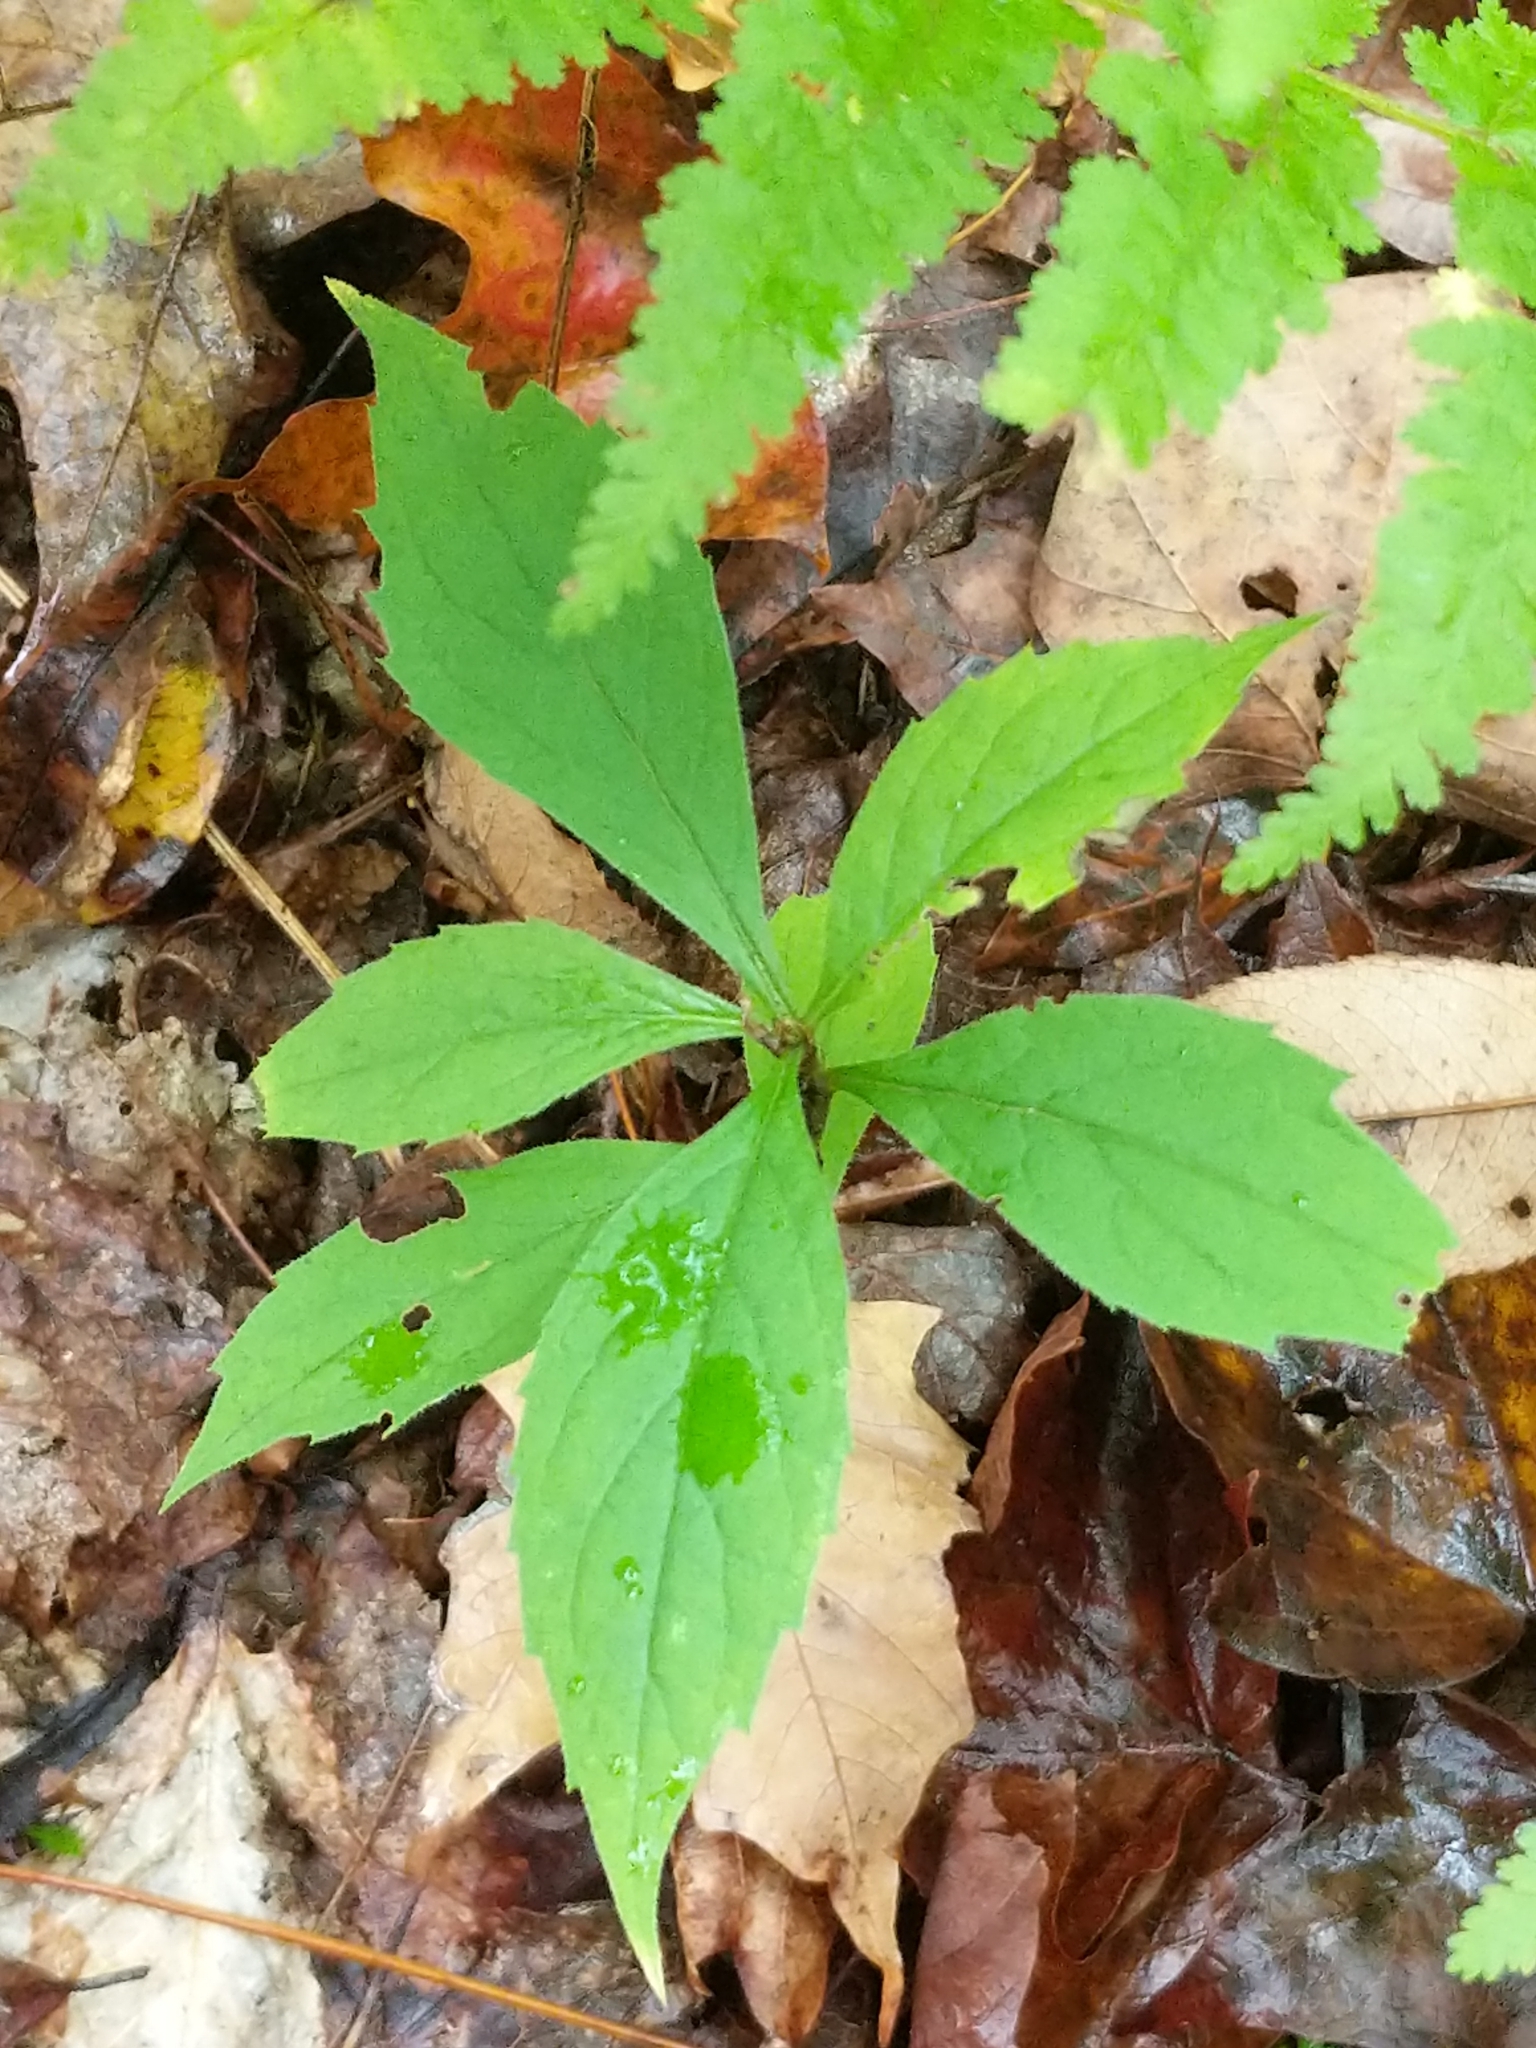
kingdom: Plantae
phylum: Tracheophyta
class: Magnoliopsida
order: Asterales
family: Asteraceae
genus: Oclemena
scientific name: Oclemena acuminata
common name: Mountain aster
